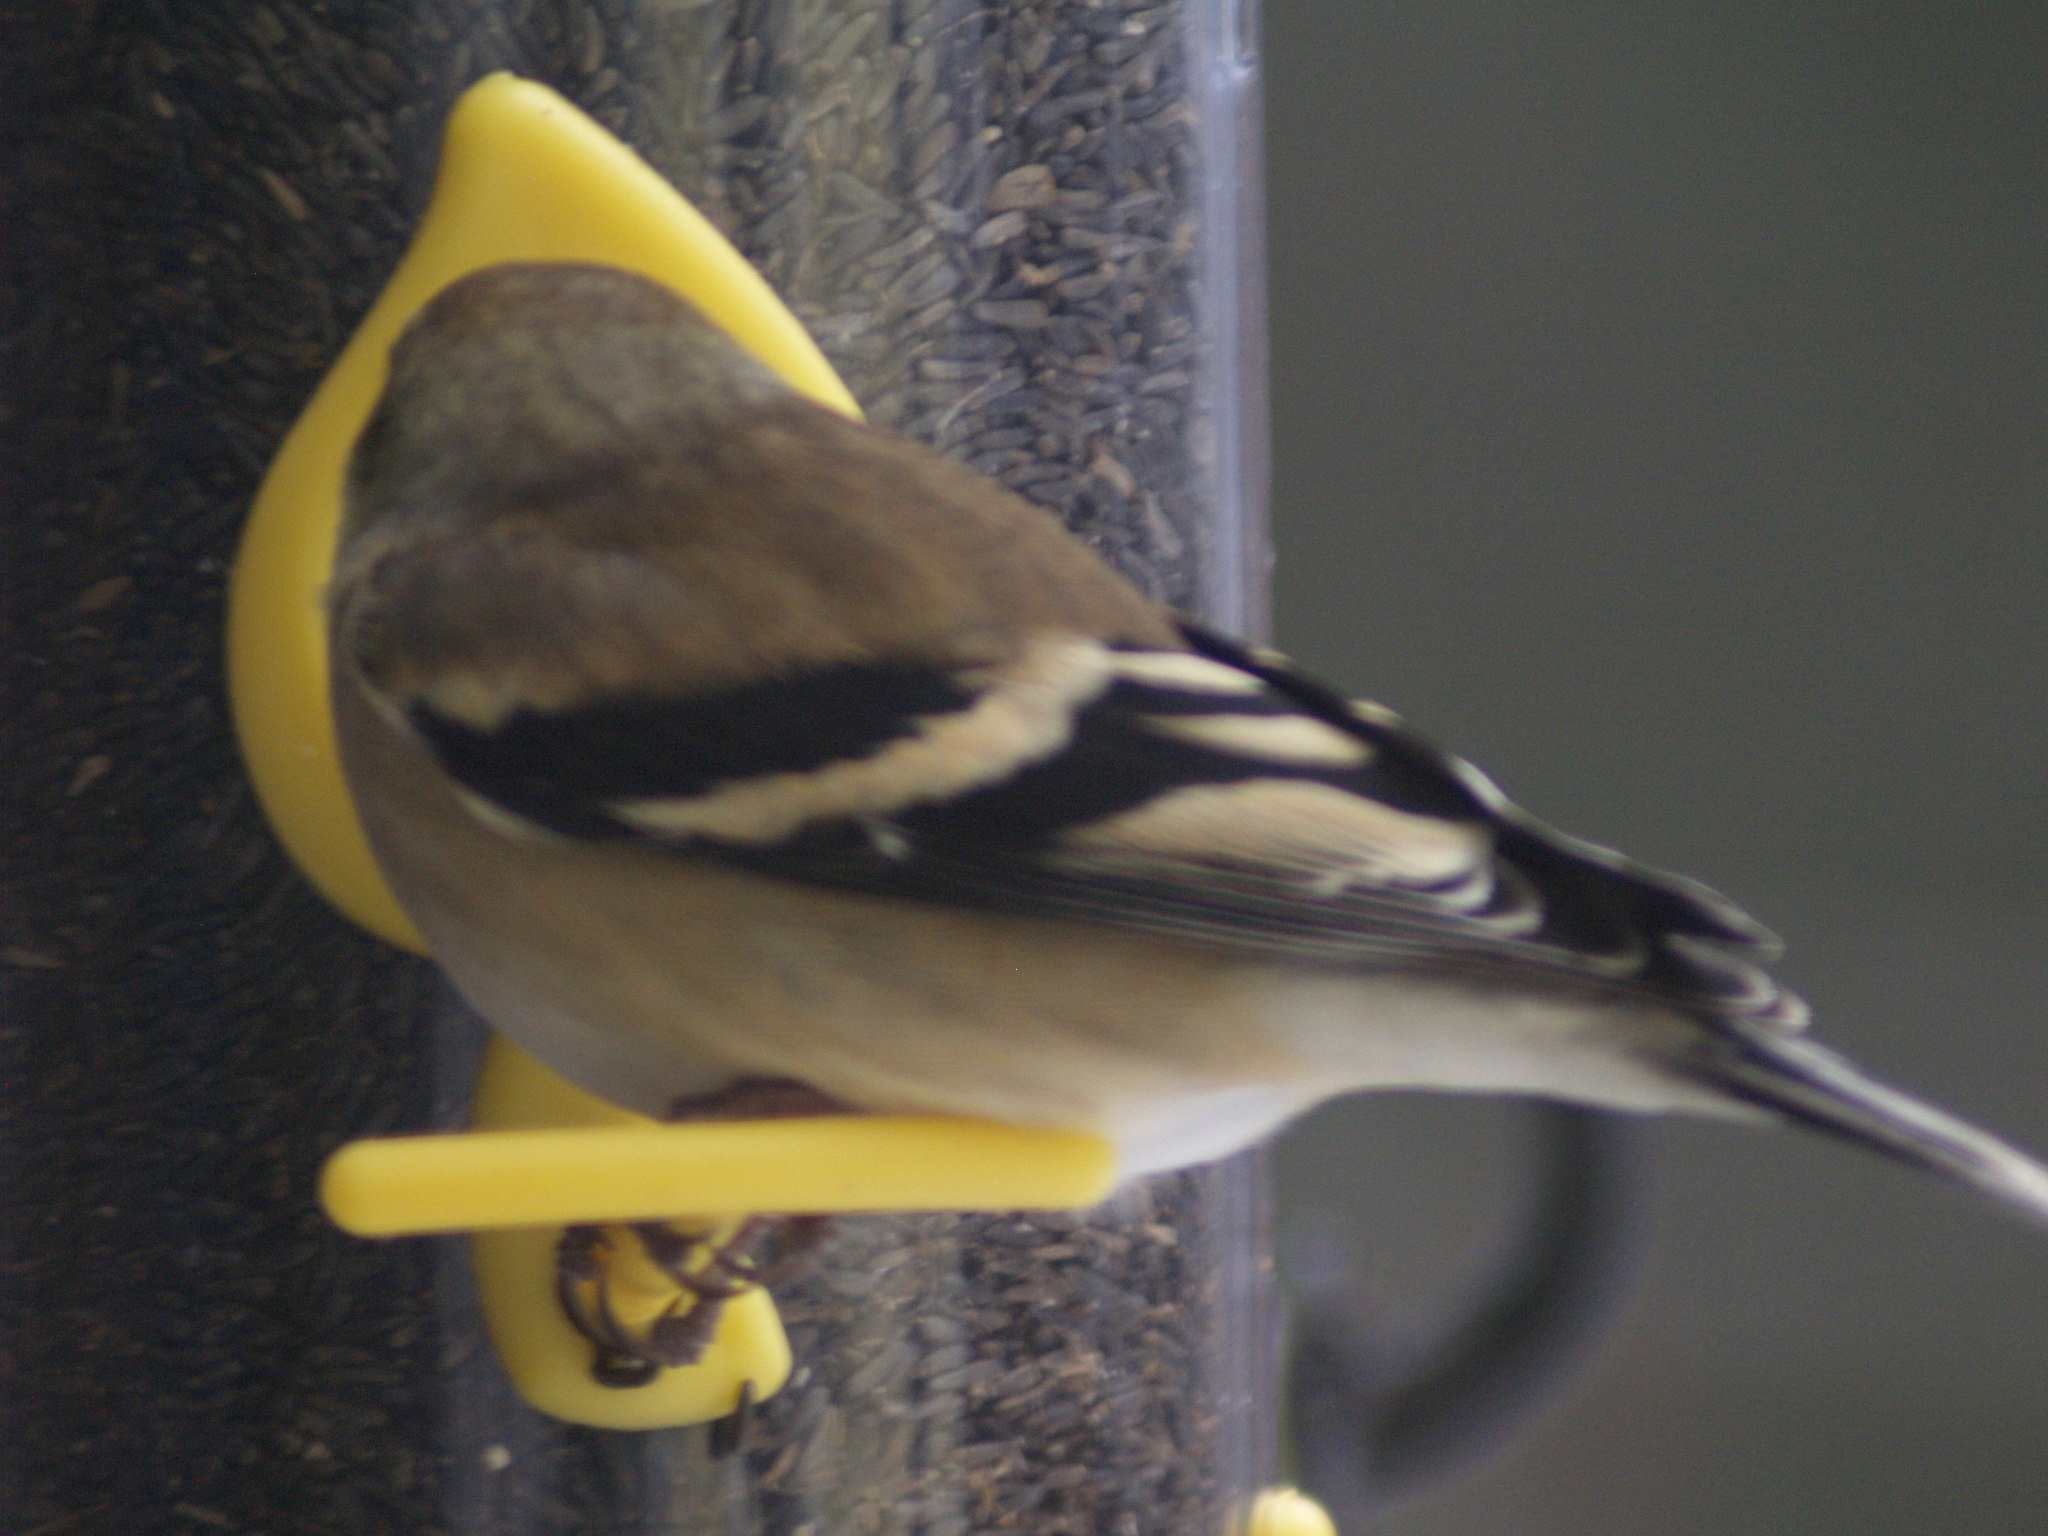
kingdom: Animalia
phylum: Chordata
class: Aves
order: Passeriformes
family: Fringillidae
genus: Spinus
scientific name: Spinus tristis
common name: American goldfinch
